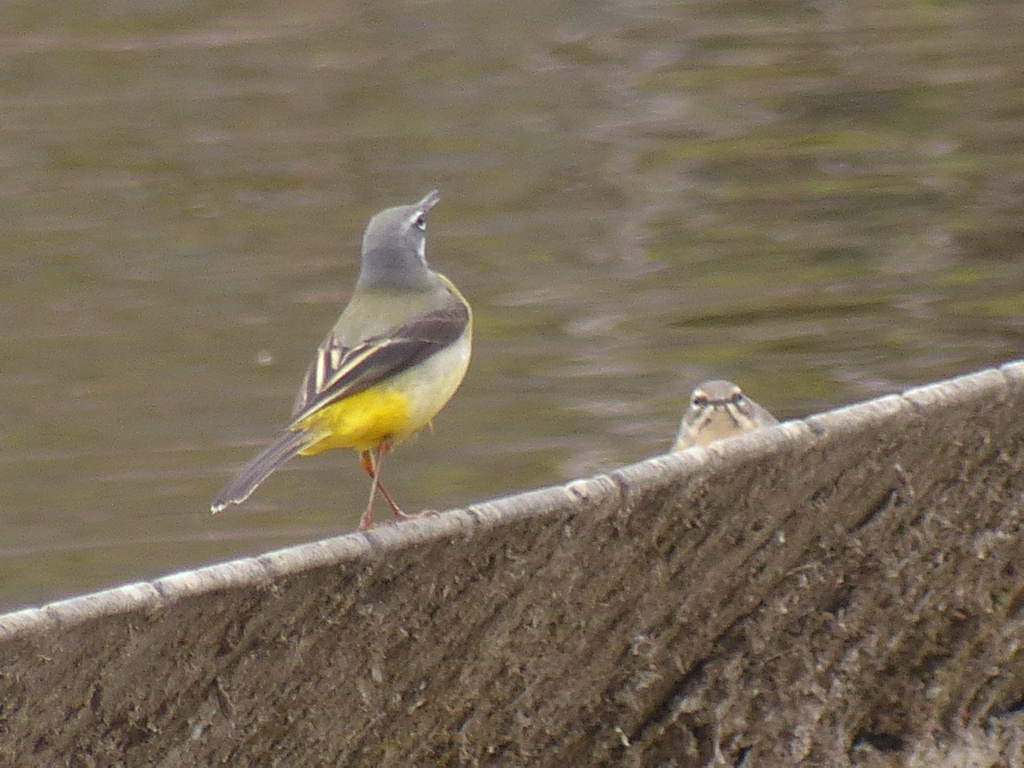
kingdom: Animalia
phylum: Chordata
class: Aves
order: Passeriformes
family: Motacillidae
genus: Motacilla
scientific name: Motacilla cinerea
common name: Grey wagtail
